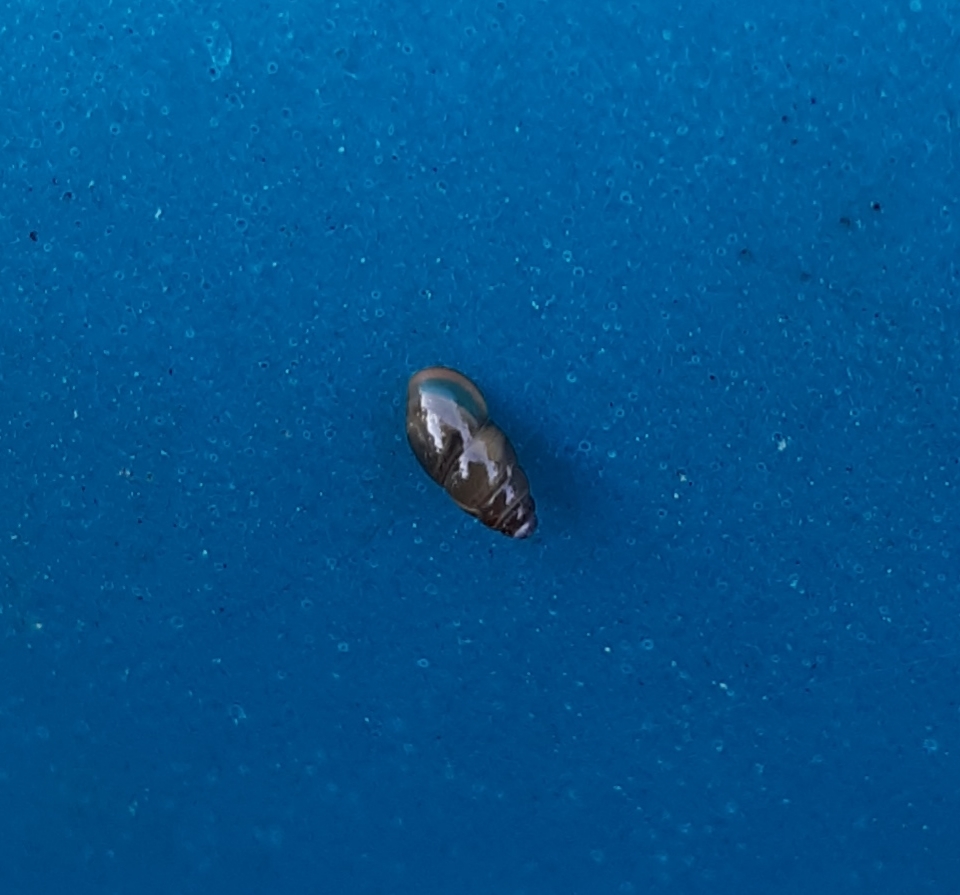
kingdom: Animalia
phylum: Mollusca
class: Gastropoda
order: Stylommatophora
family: Cochlicopidae
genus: Cochlicopa
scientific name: Cochlicopa lubrica
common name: Glossy pillar snail
